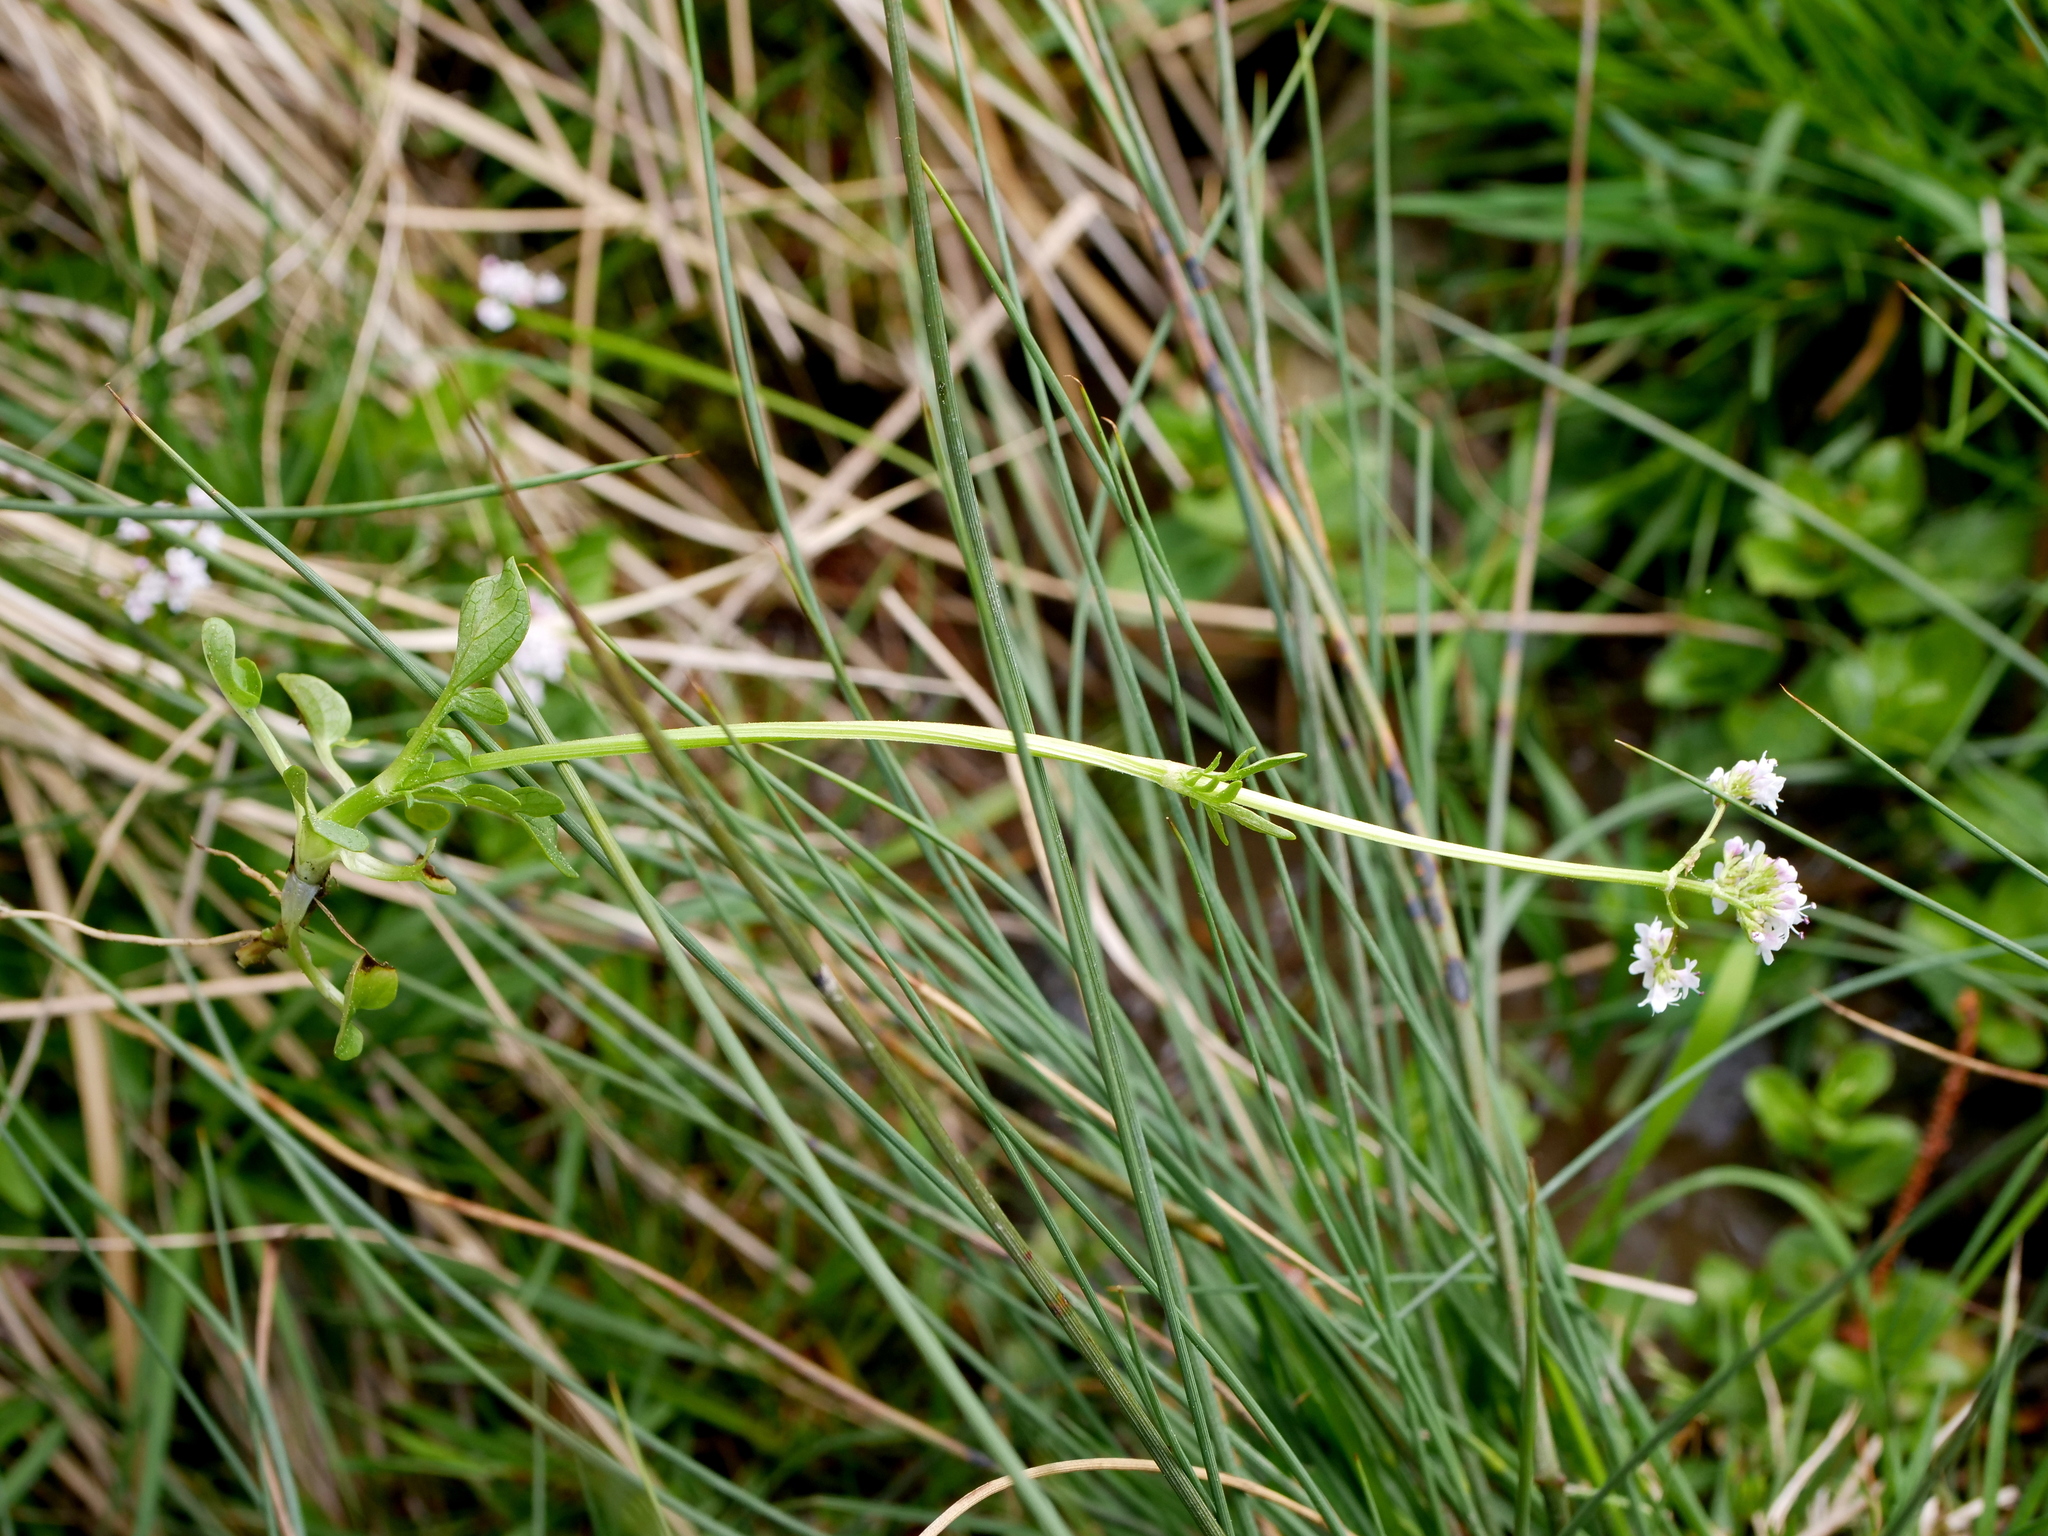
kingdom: Plantae
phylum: Tracheophyta
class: Magnoliopsida
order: Dipsacales
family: Caprifoliaceae
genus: Valeriana
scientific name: Valeriana dioica
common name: Marsh valerian
